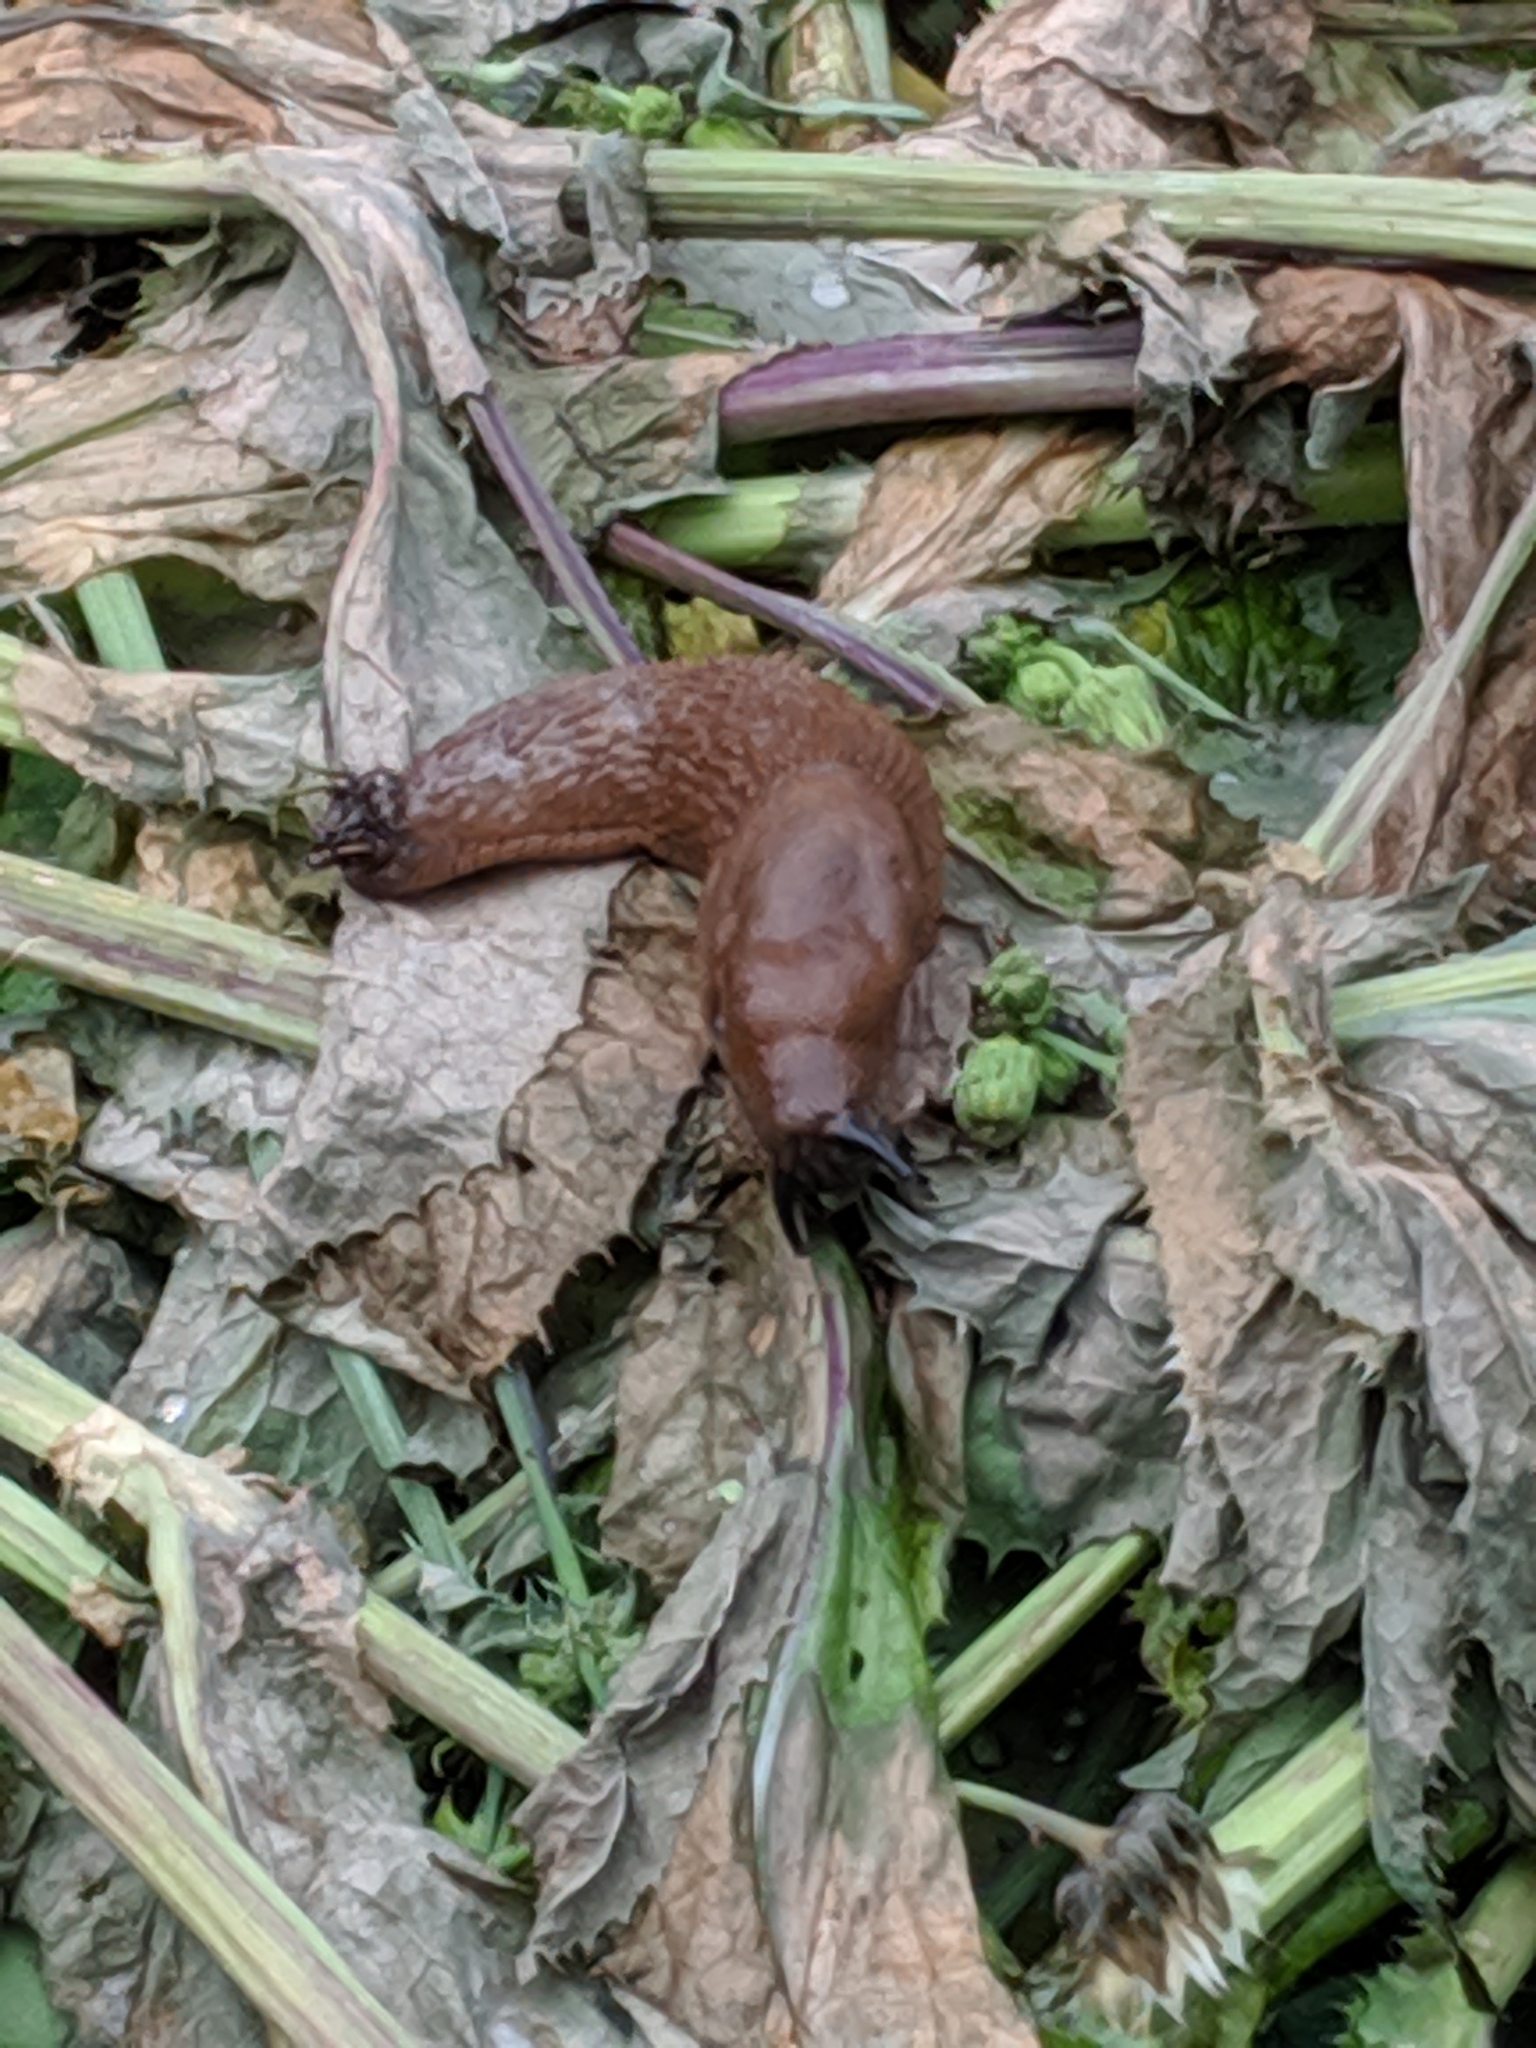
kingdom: Animalia
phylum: Mollusca
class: Gastropoda
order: Stylommatophora
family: Arionidae
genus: Arion
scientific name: Arion rufus
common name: Chocolate arion
